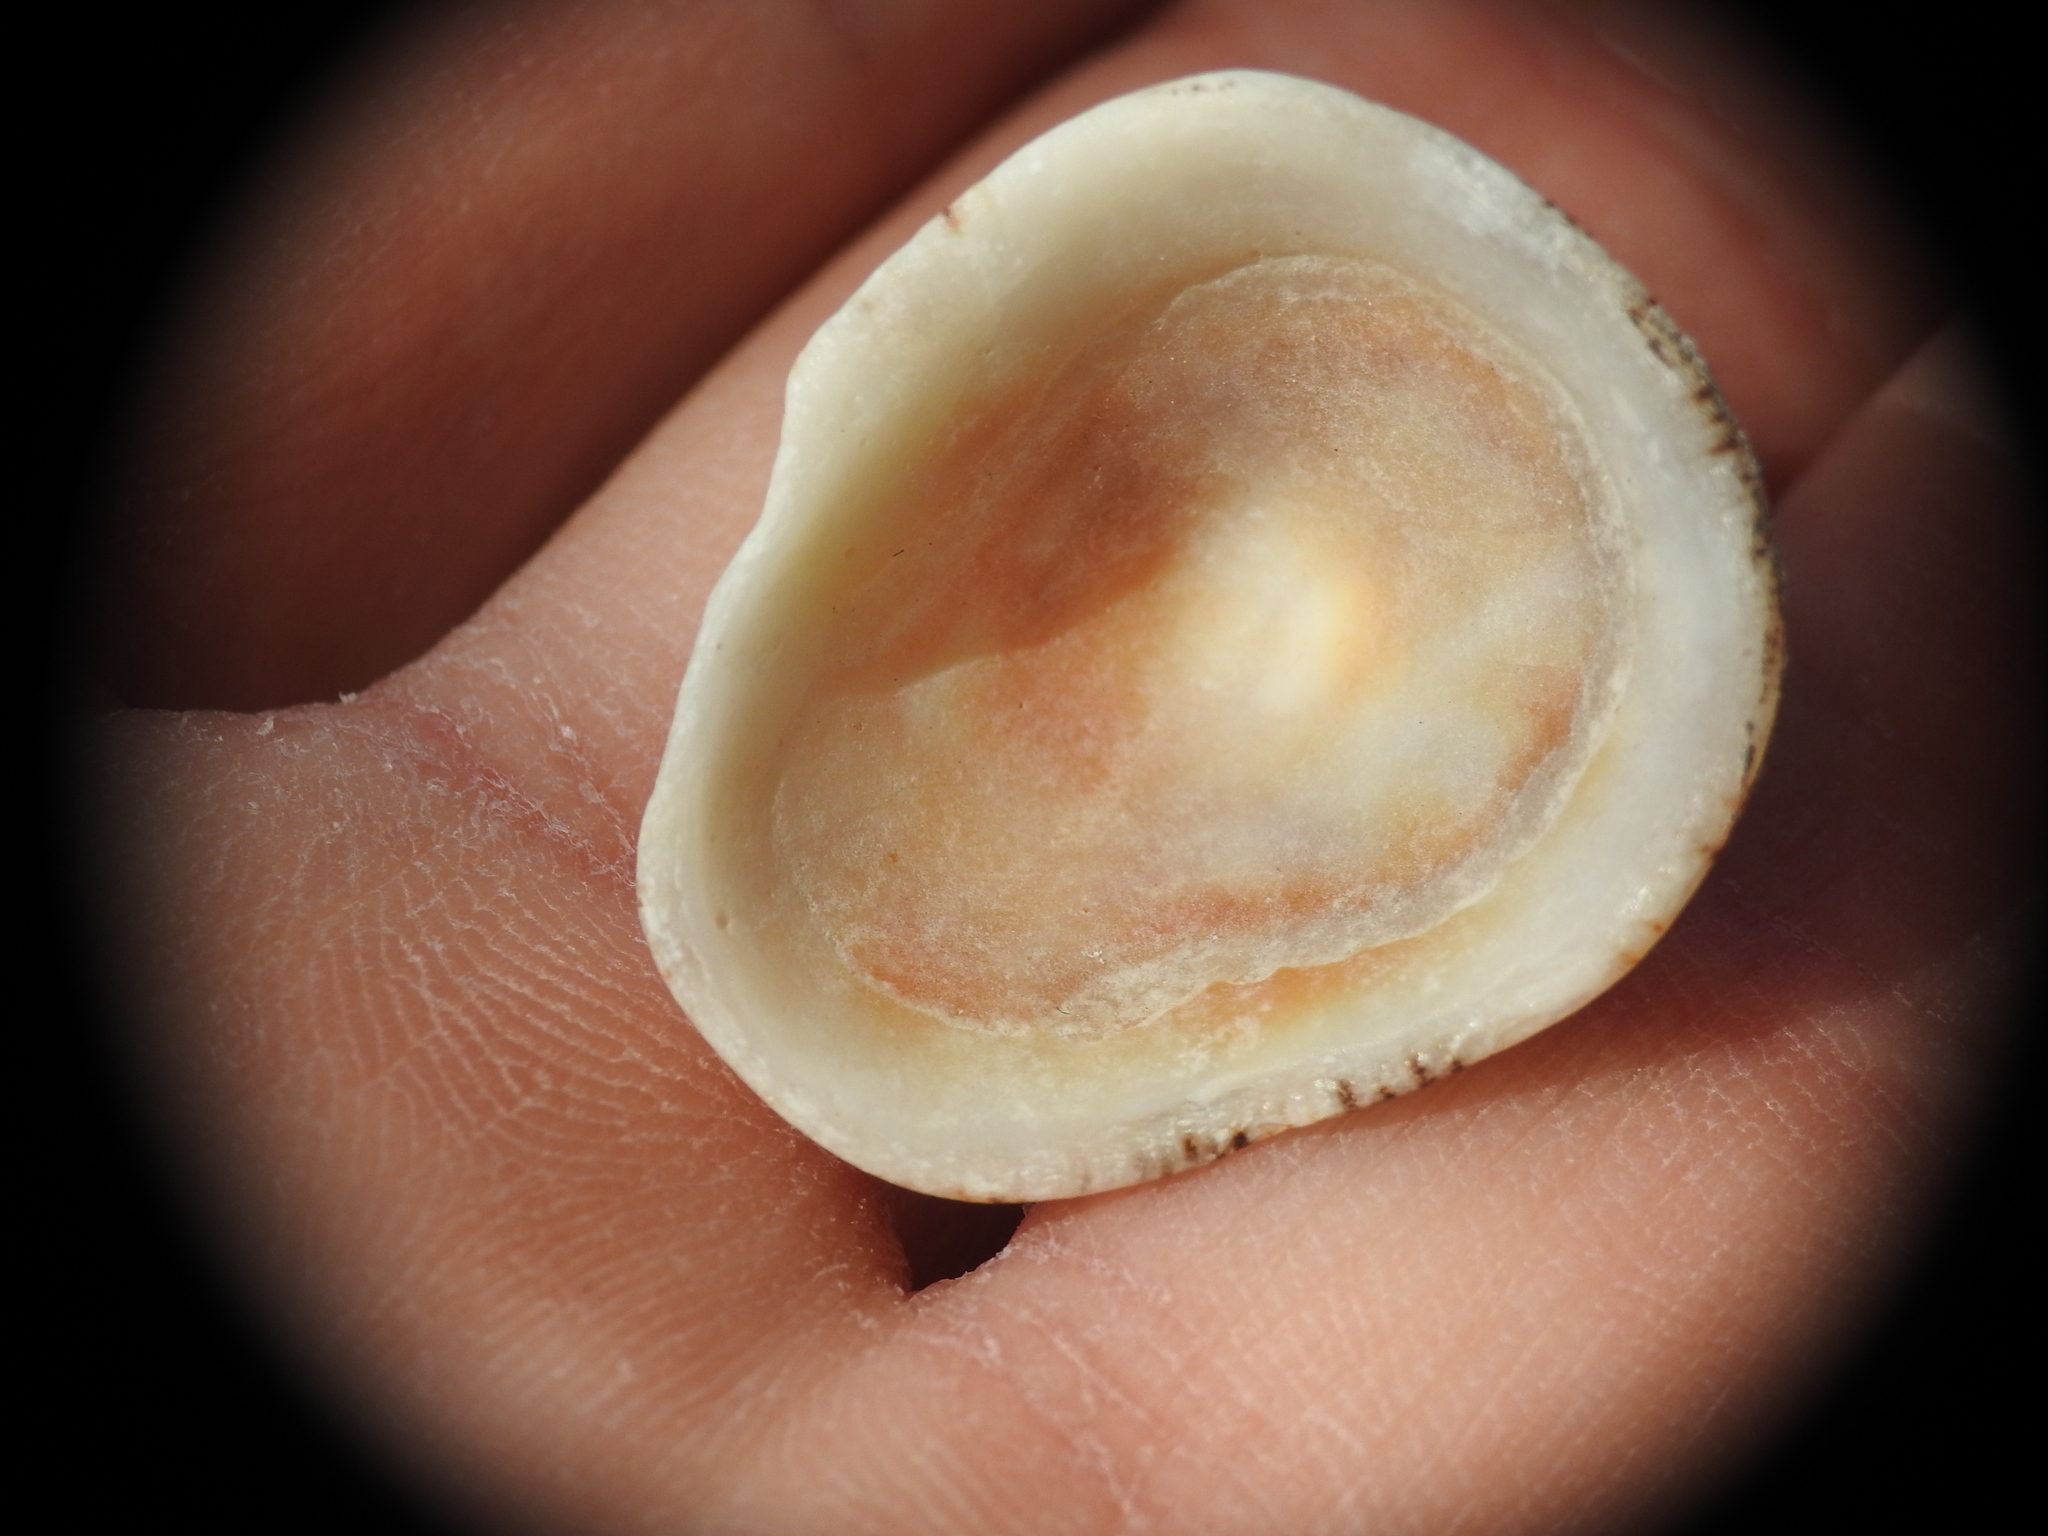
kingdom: Animalia
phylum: Mollusca
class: Gastropoda
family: Patellidae
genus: Patella
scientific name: Patella rustica
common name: Lusitanian limpet
